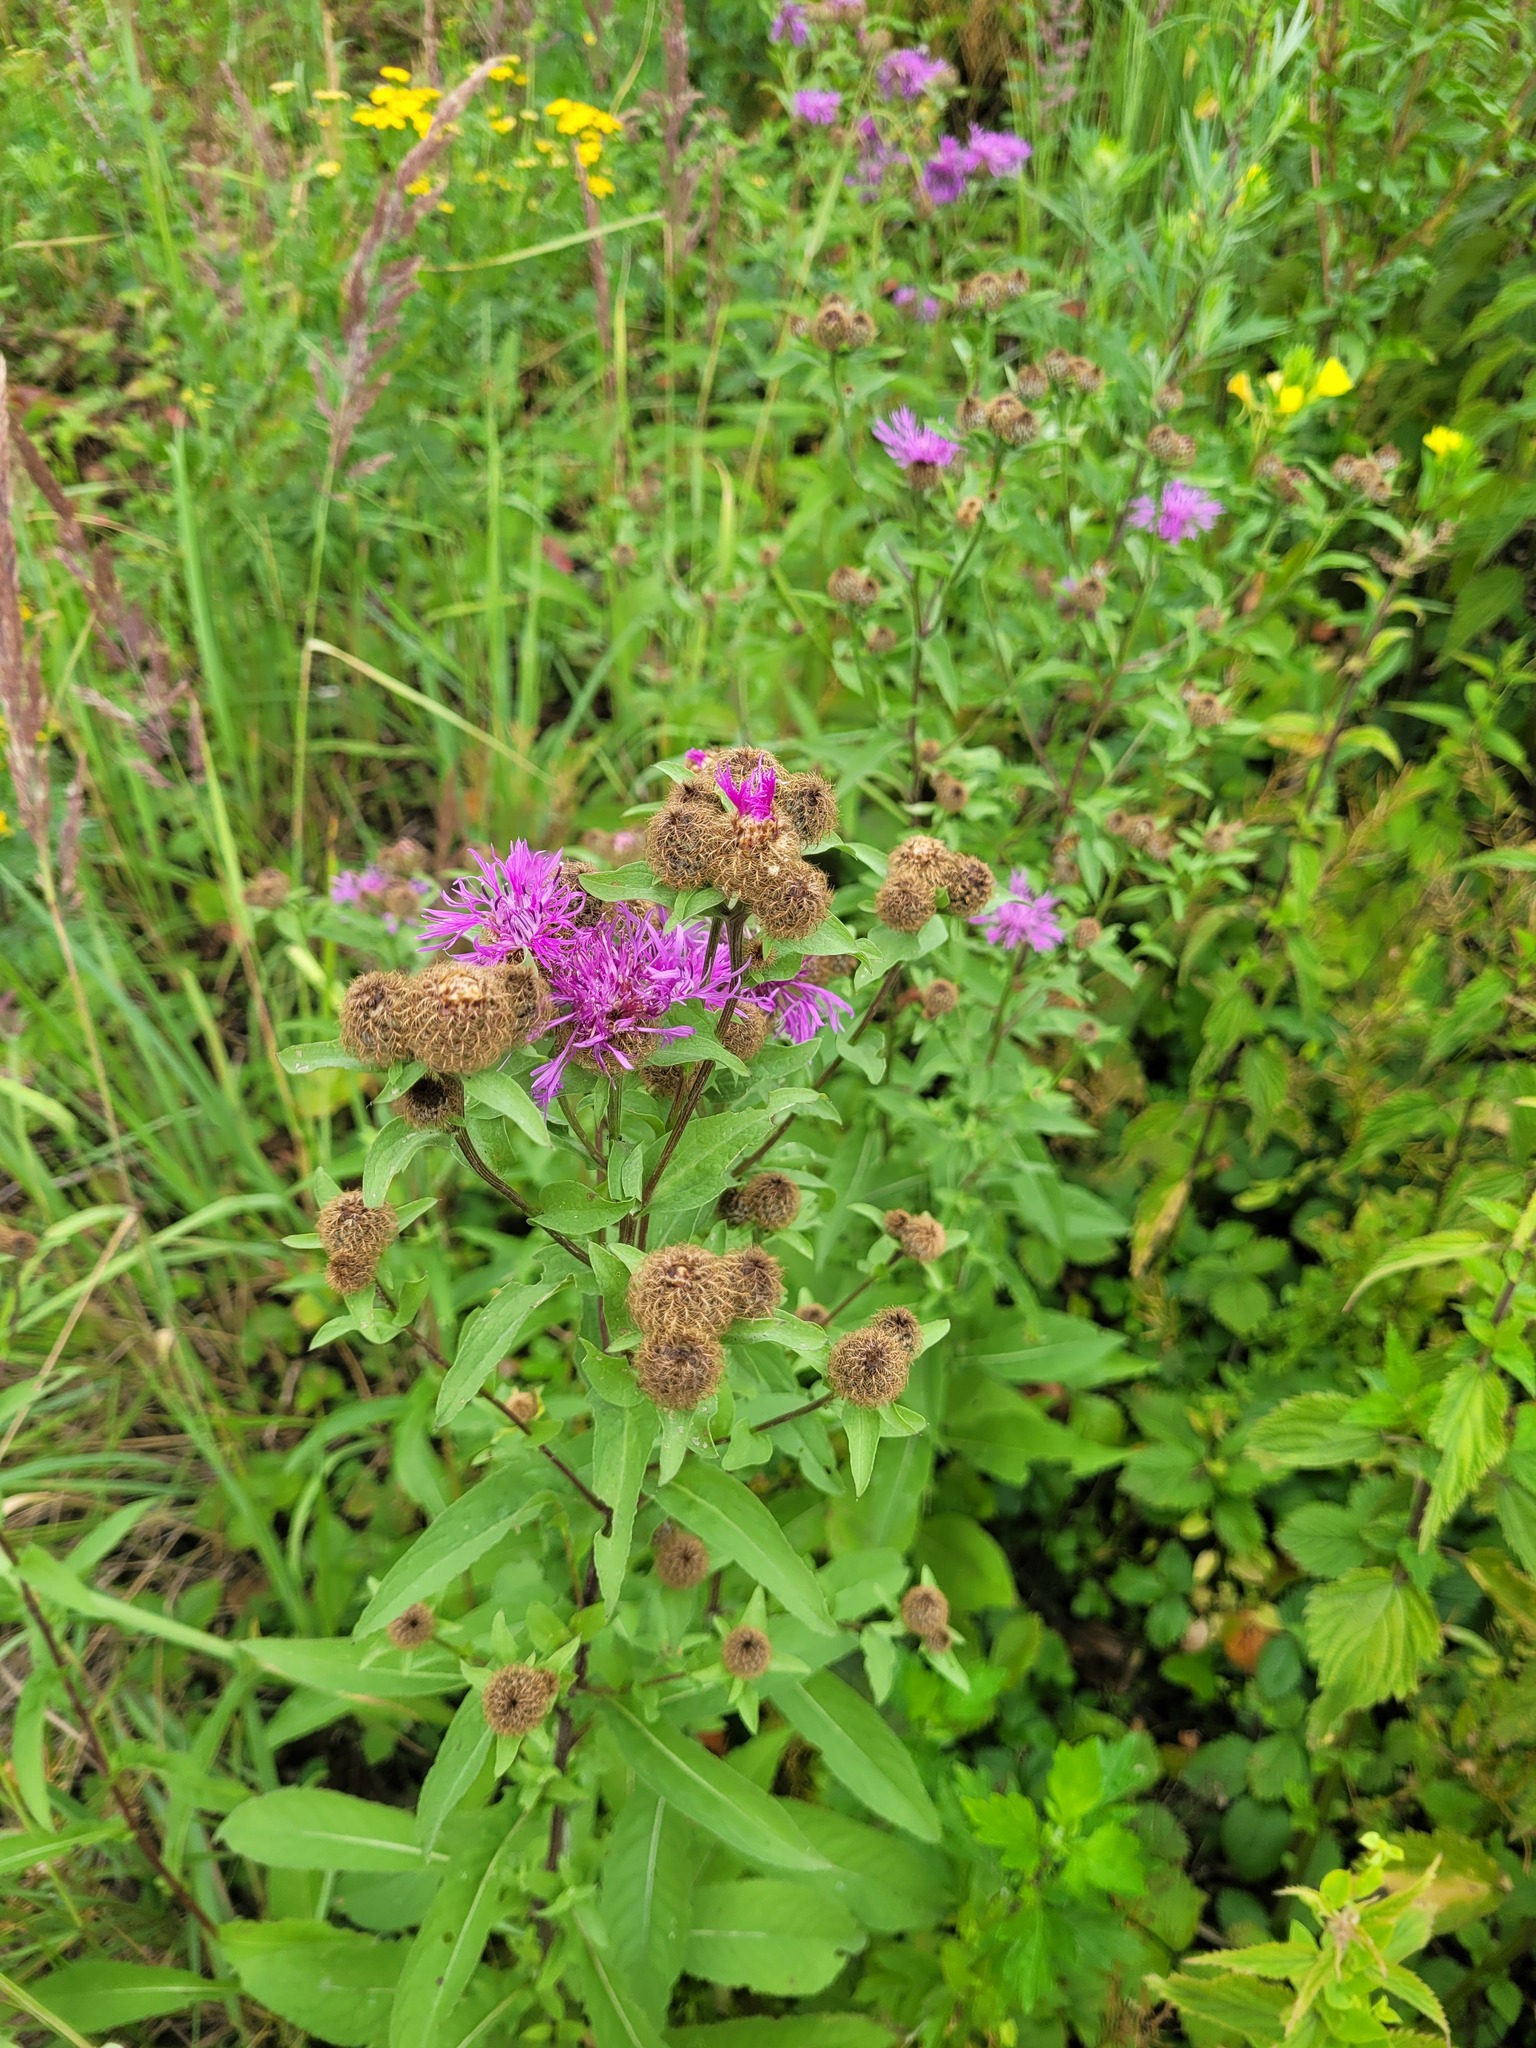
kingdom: Plantae
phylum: Tracheophyta
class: Magnoliopsida
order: Asterales
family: Asteraceae
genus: Centaurea
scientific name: Centaurea pseudophrygia
